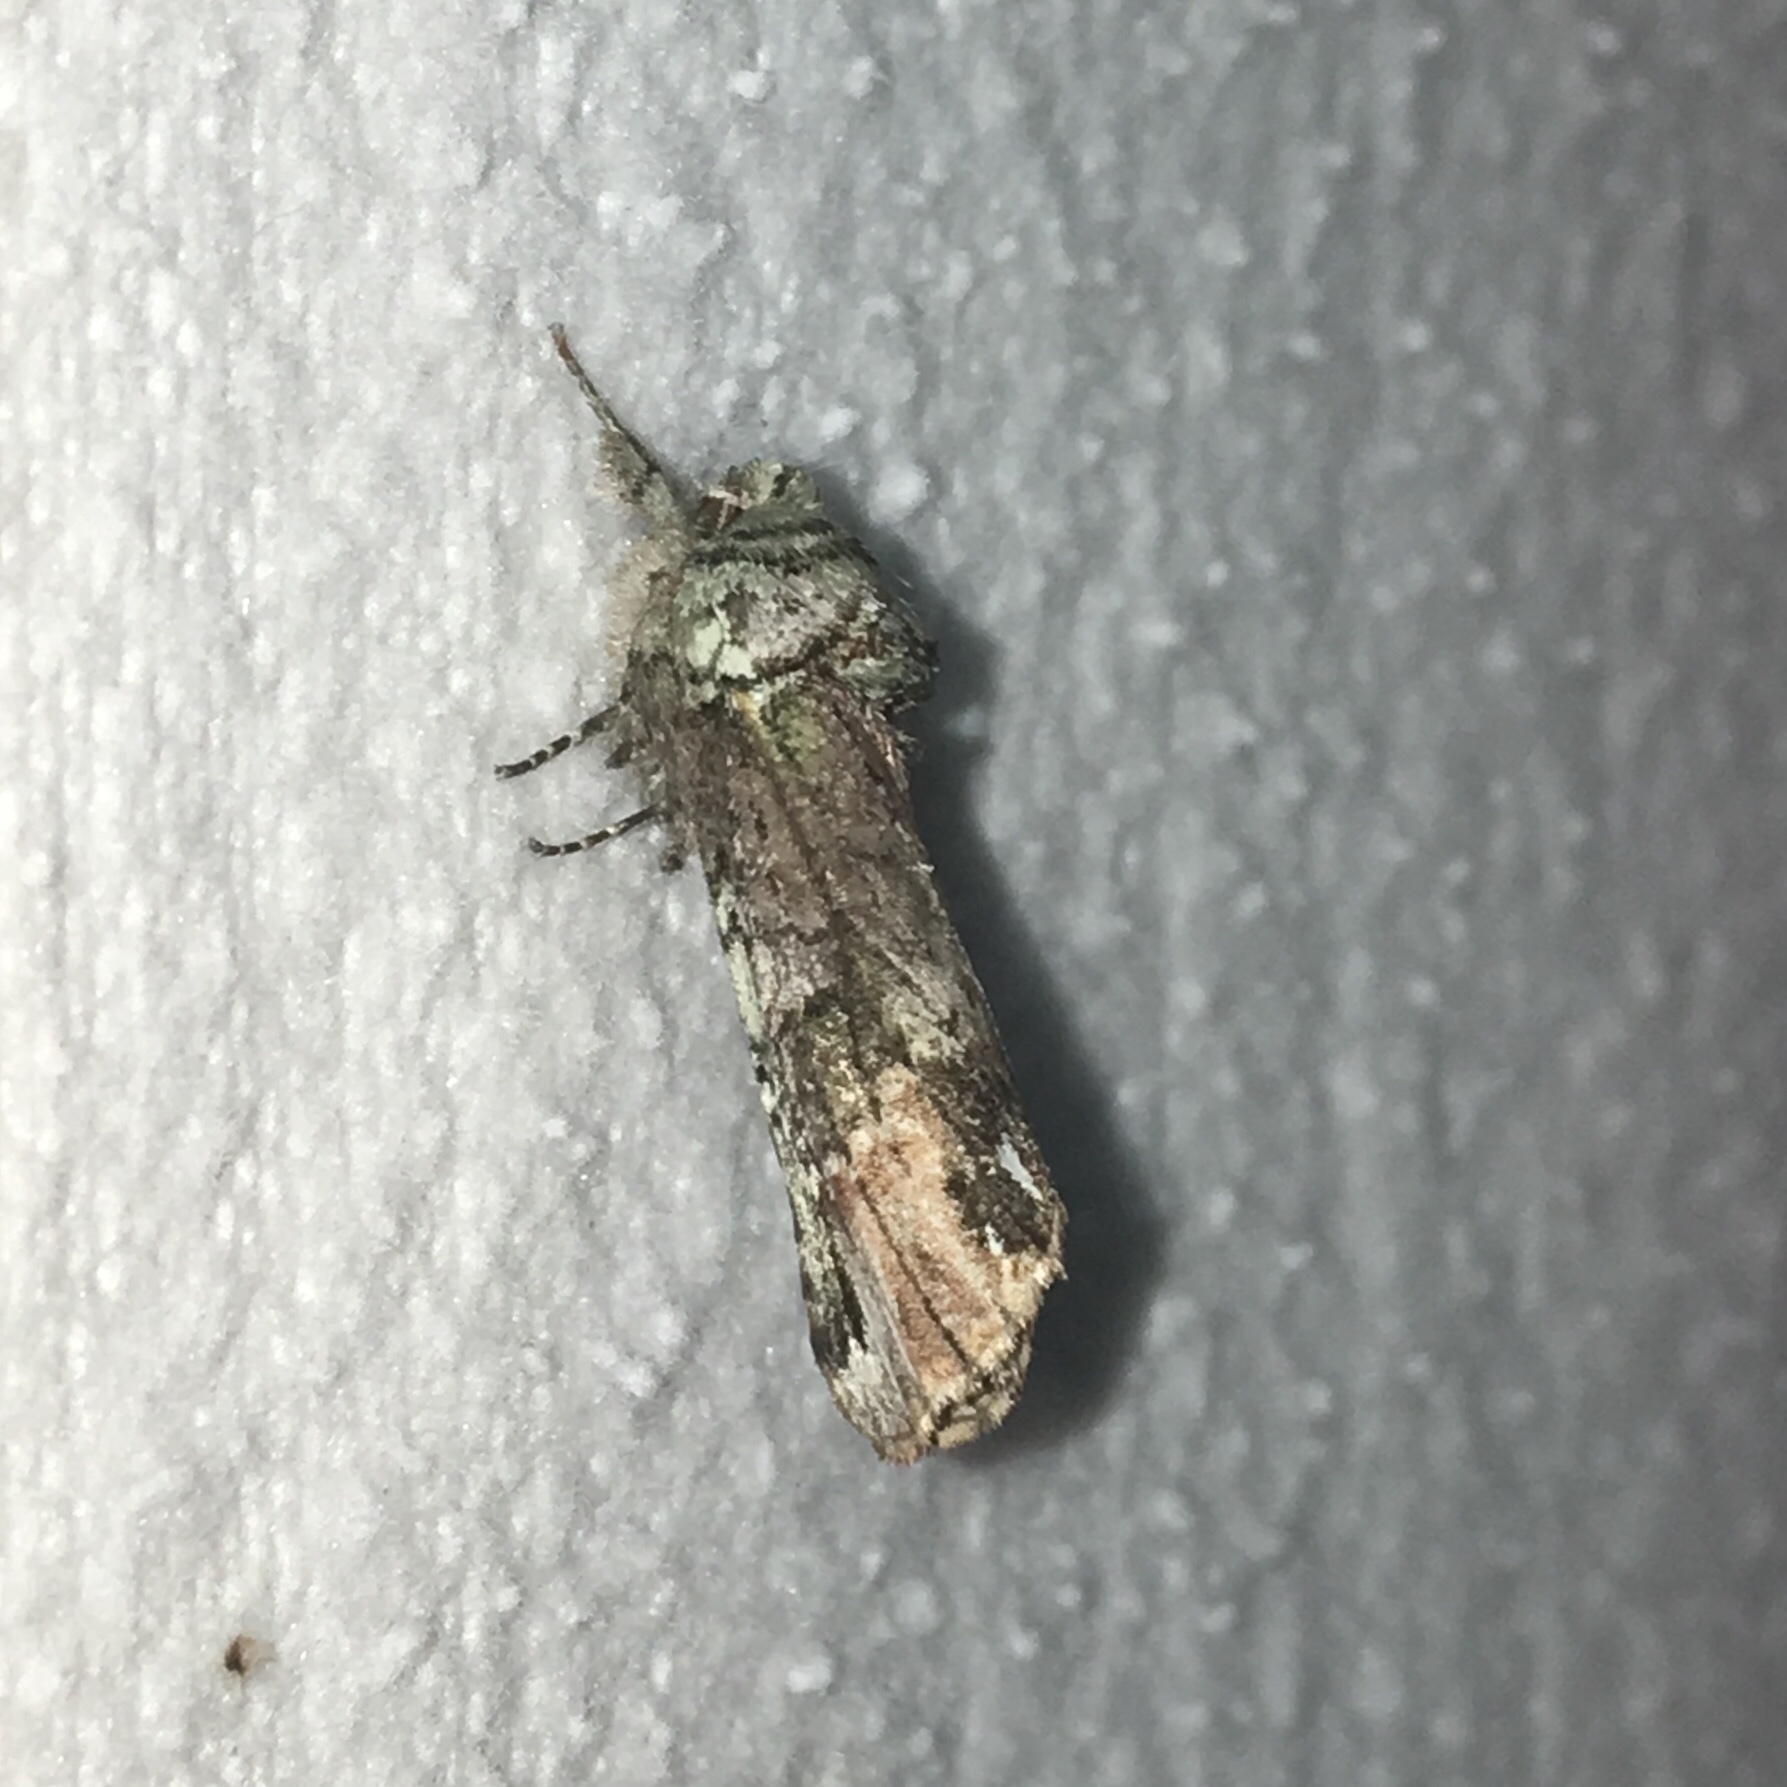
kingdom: Animalia
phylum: Arthropoda
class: Insecta
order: Lepidoptera
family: Notodontidae
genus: Schizura
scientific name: Schizura
